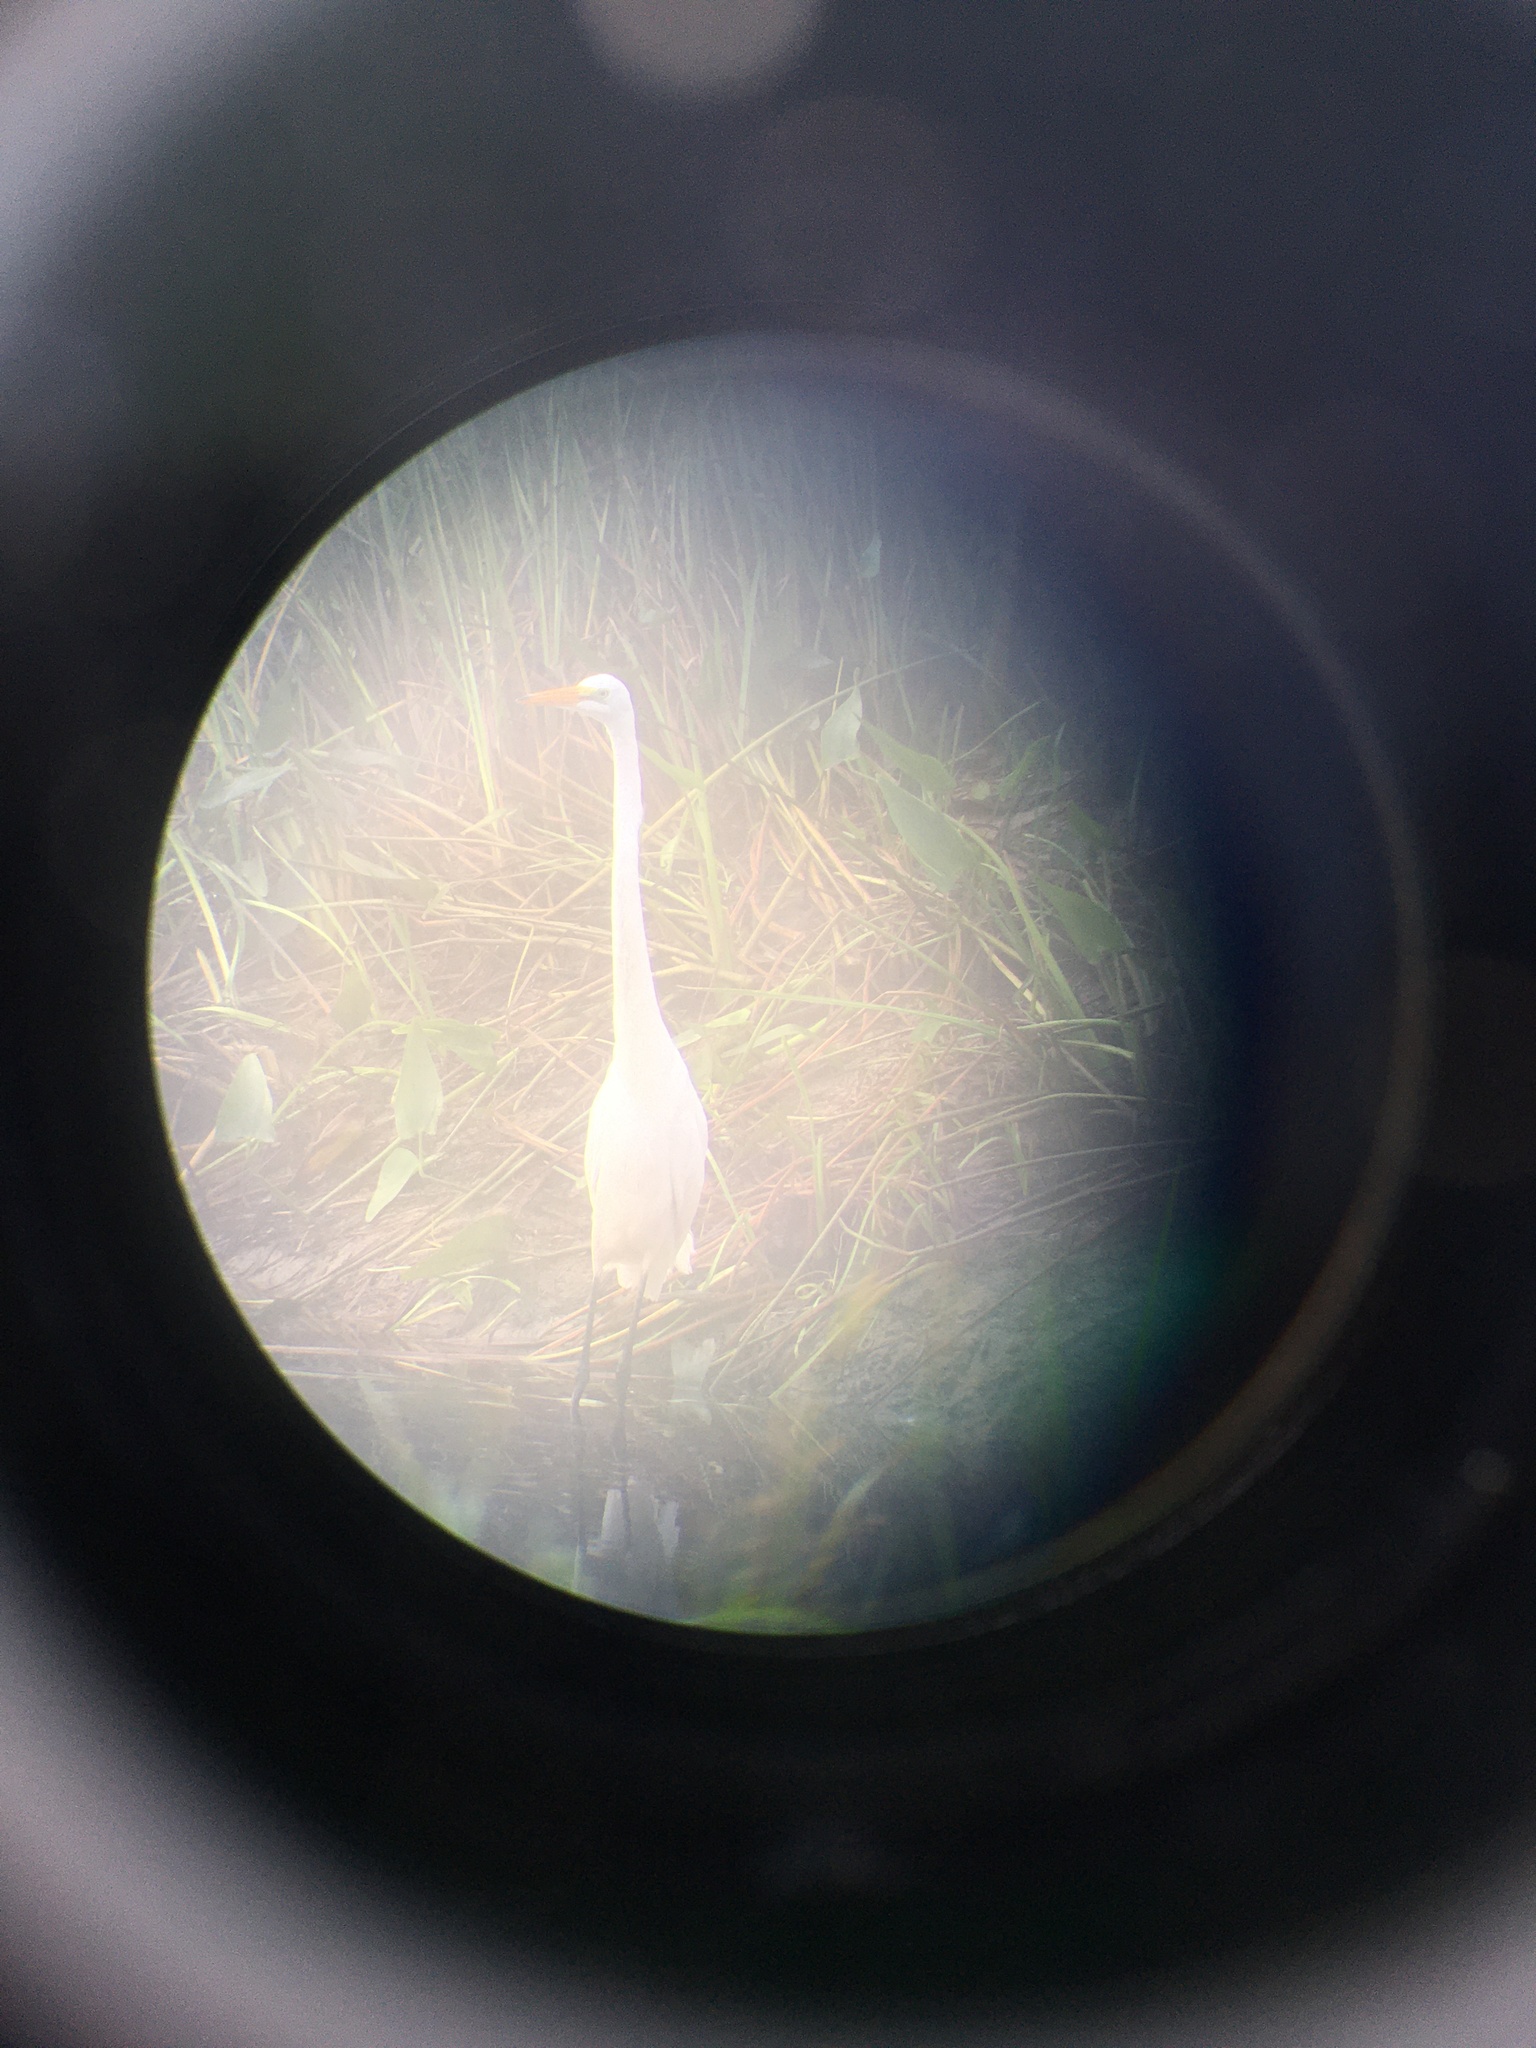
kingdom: Animalia
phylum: Chordata
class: Aves
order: Pelecaniformes
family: Ardeidae
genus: Ardea
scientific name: Ardea alba
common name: Great egret
